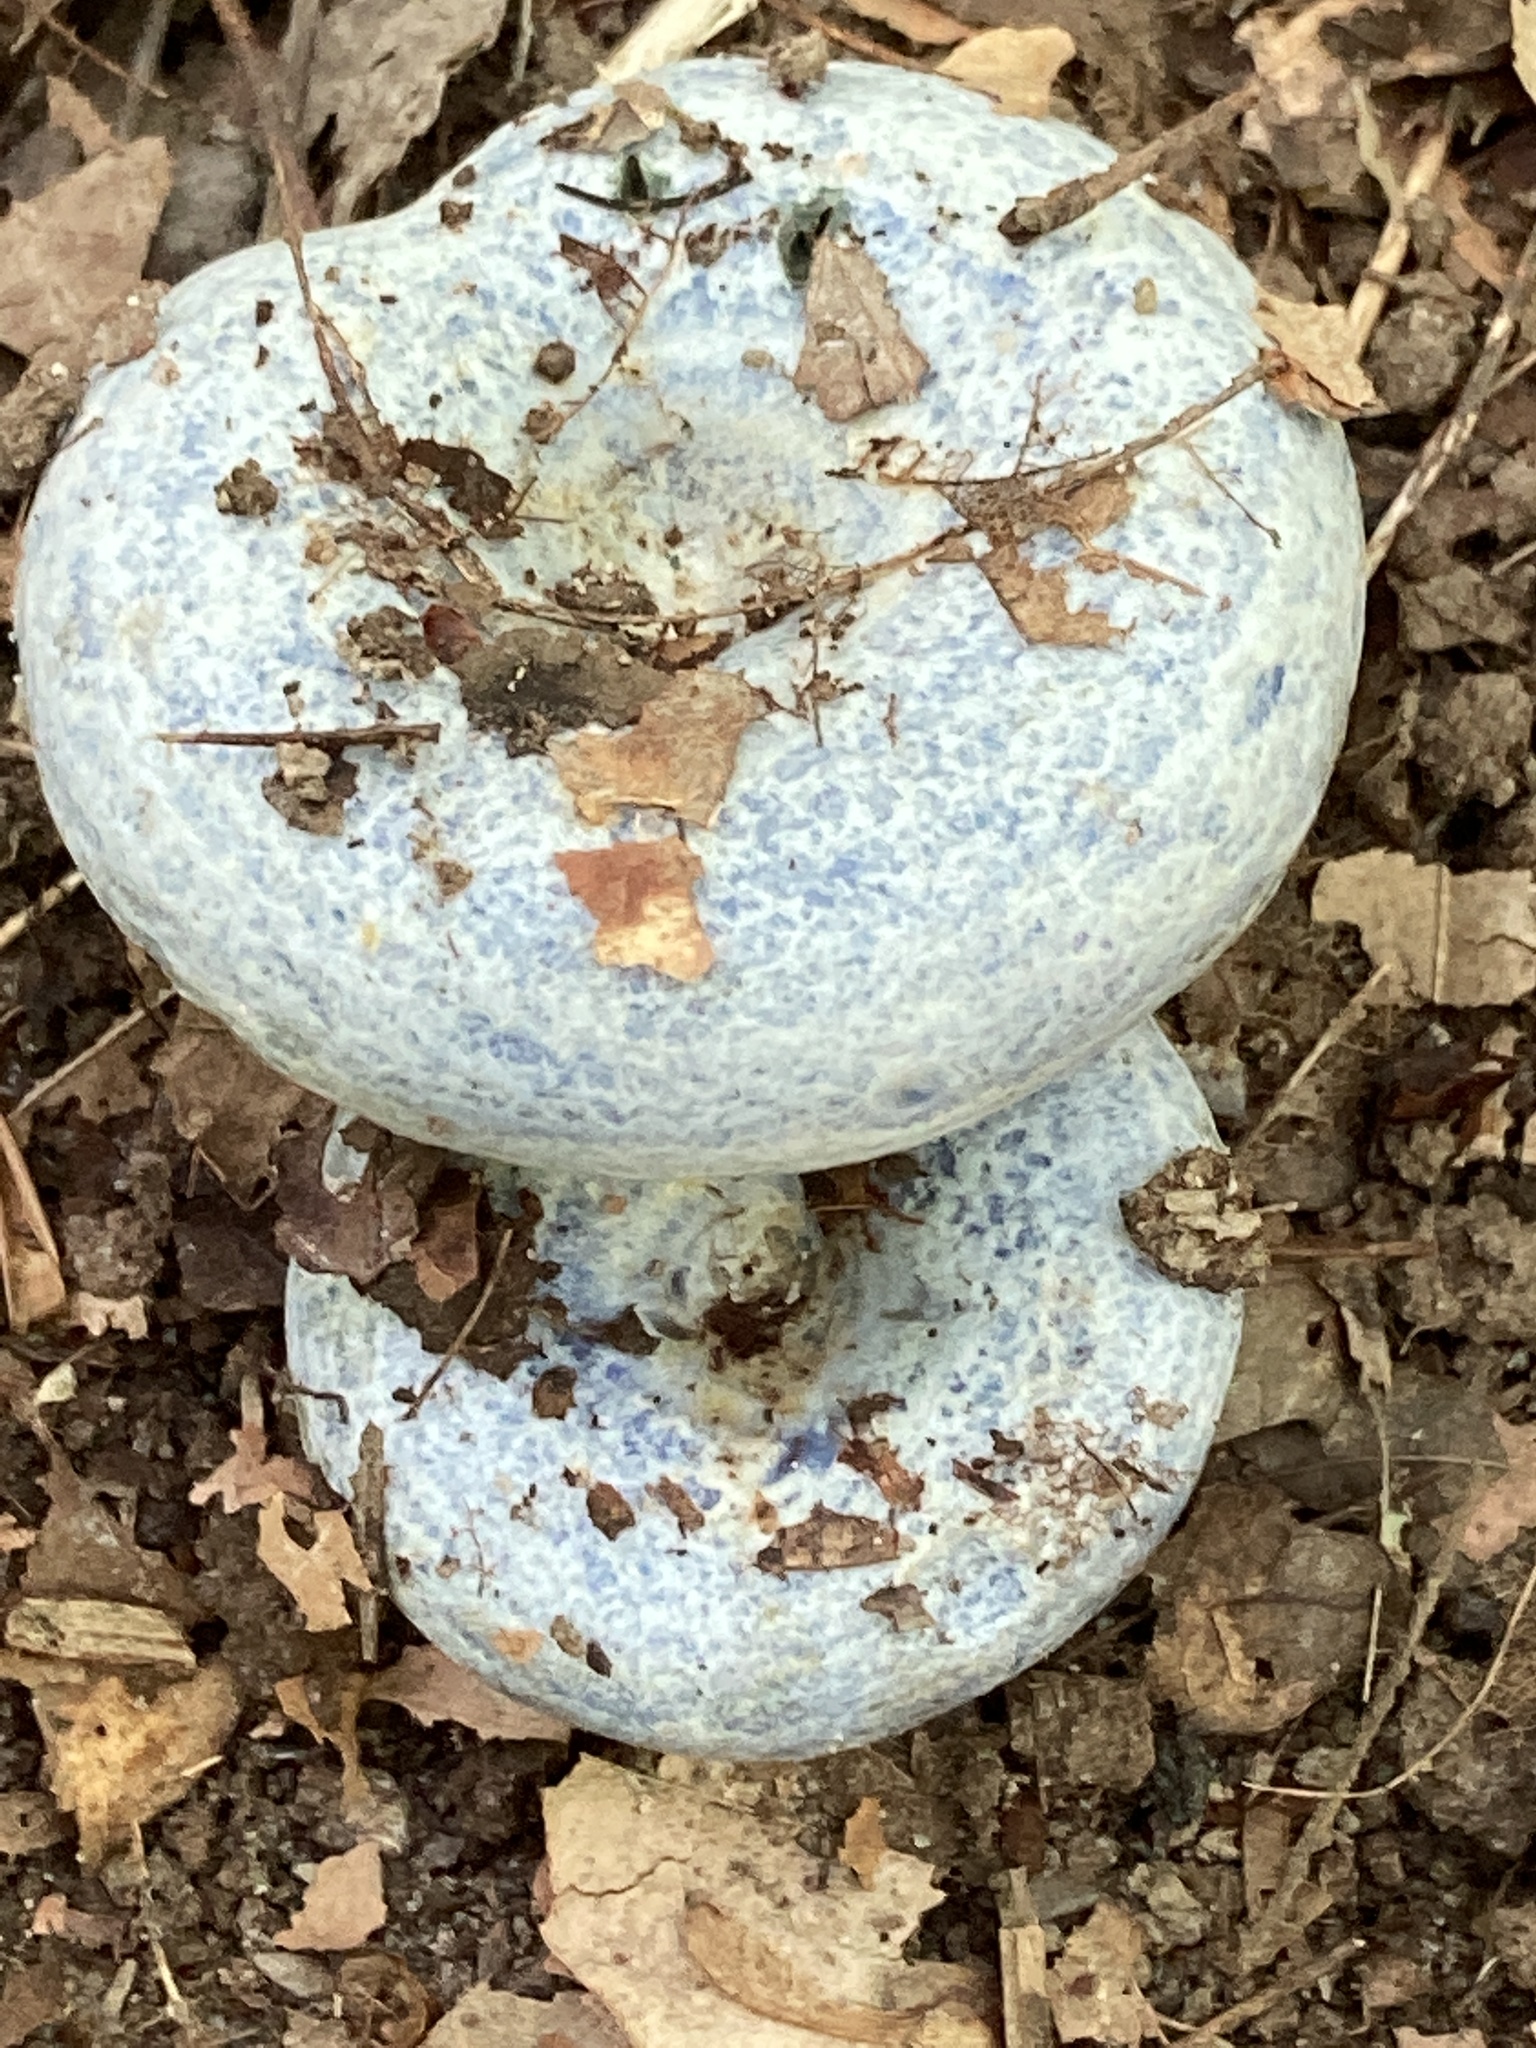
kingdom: Fungi
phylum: Basidiomycota
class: Agaricomycetes
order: Russulales
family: Russulaceae
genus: Lactarius
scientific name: Lactarius indigo
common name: Indigo milk cap
